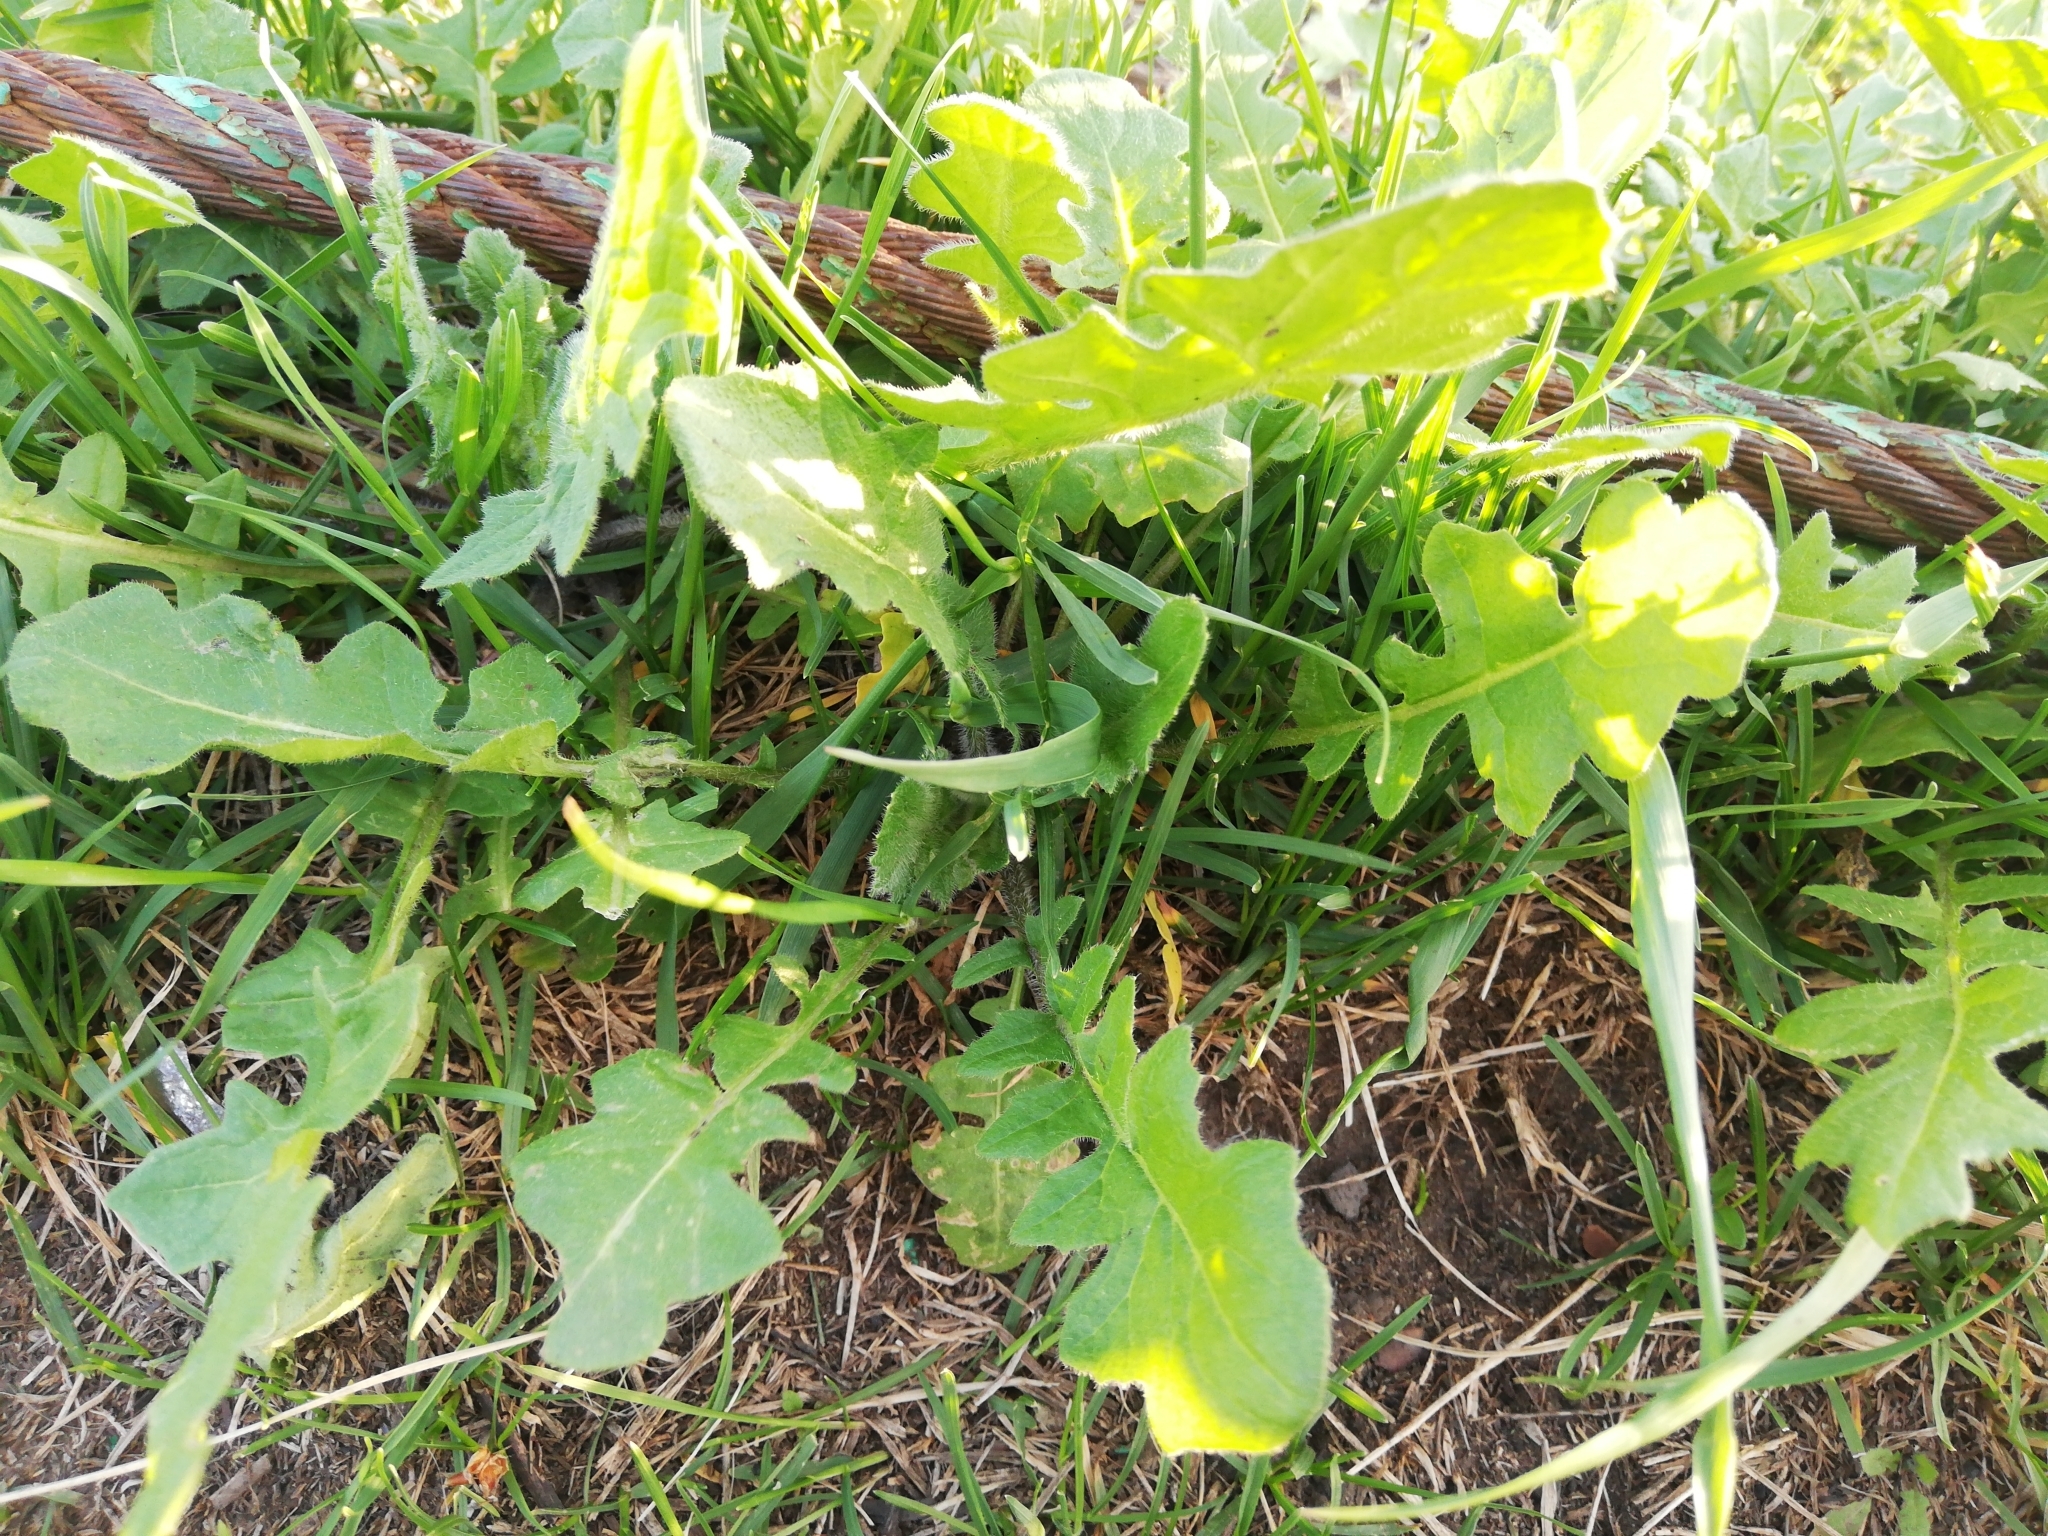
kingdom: Plantae
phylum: Tracheophyta
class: Magnoliopsida
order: Brassicales
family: Brassicaceae
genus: Sisymbrium
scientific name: Sisymbrium loeselii
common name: False london-rocket
